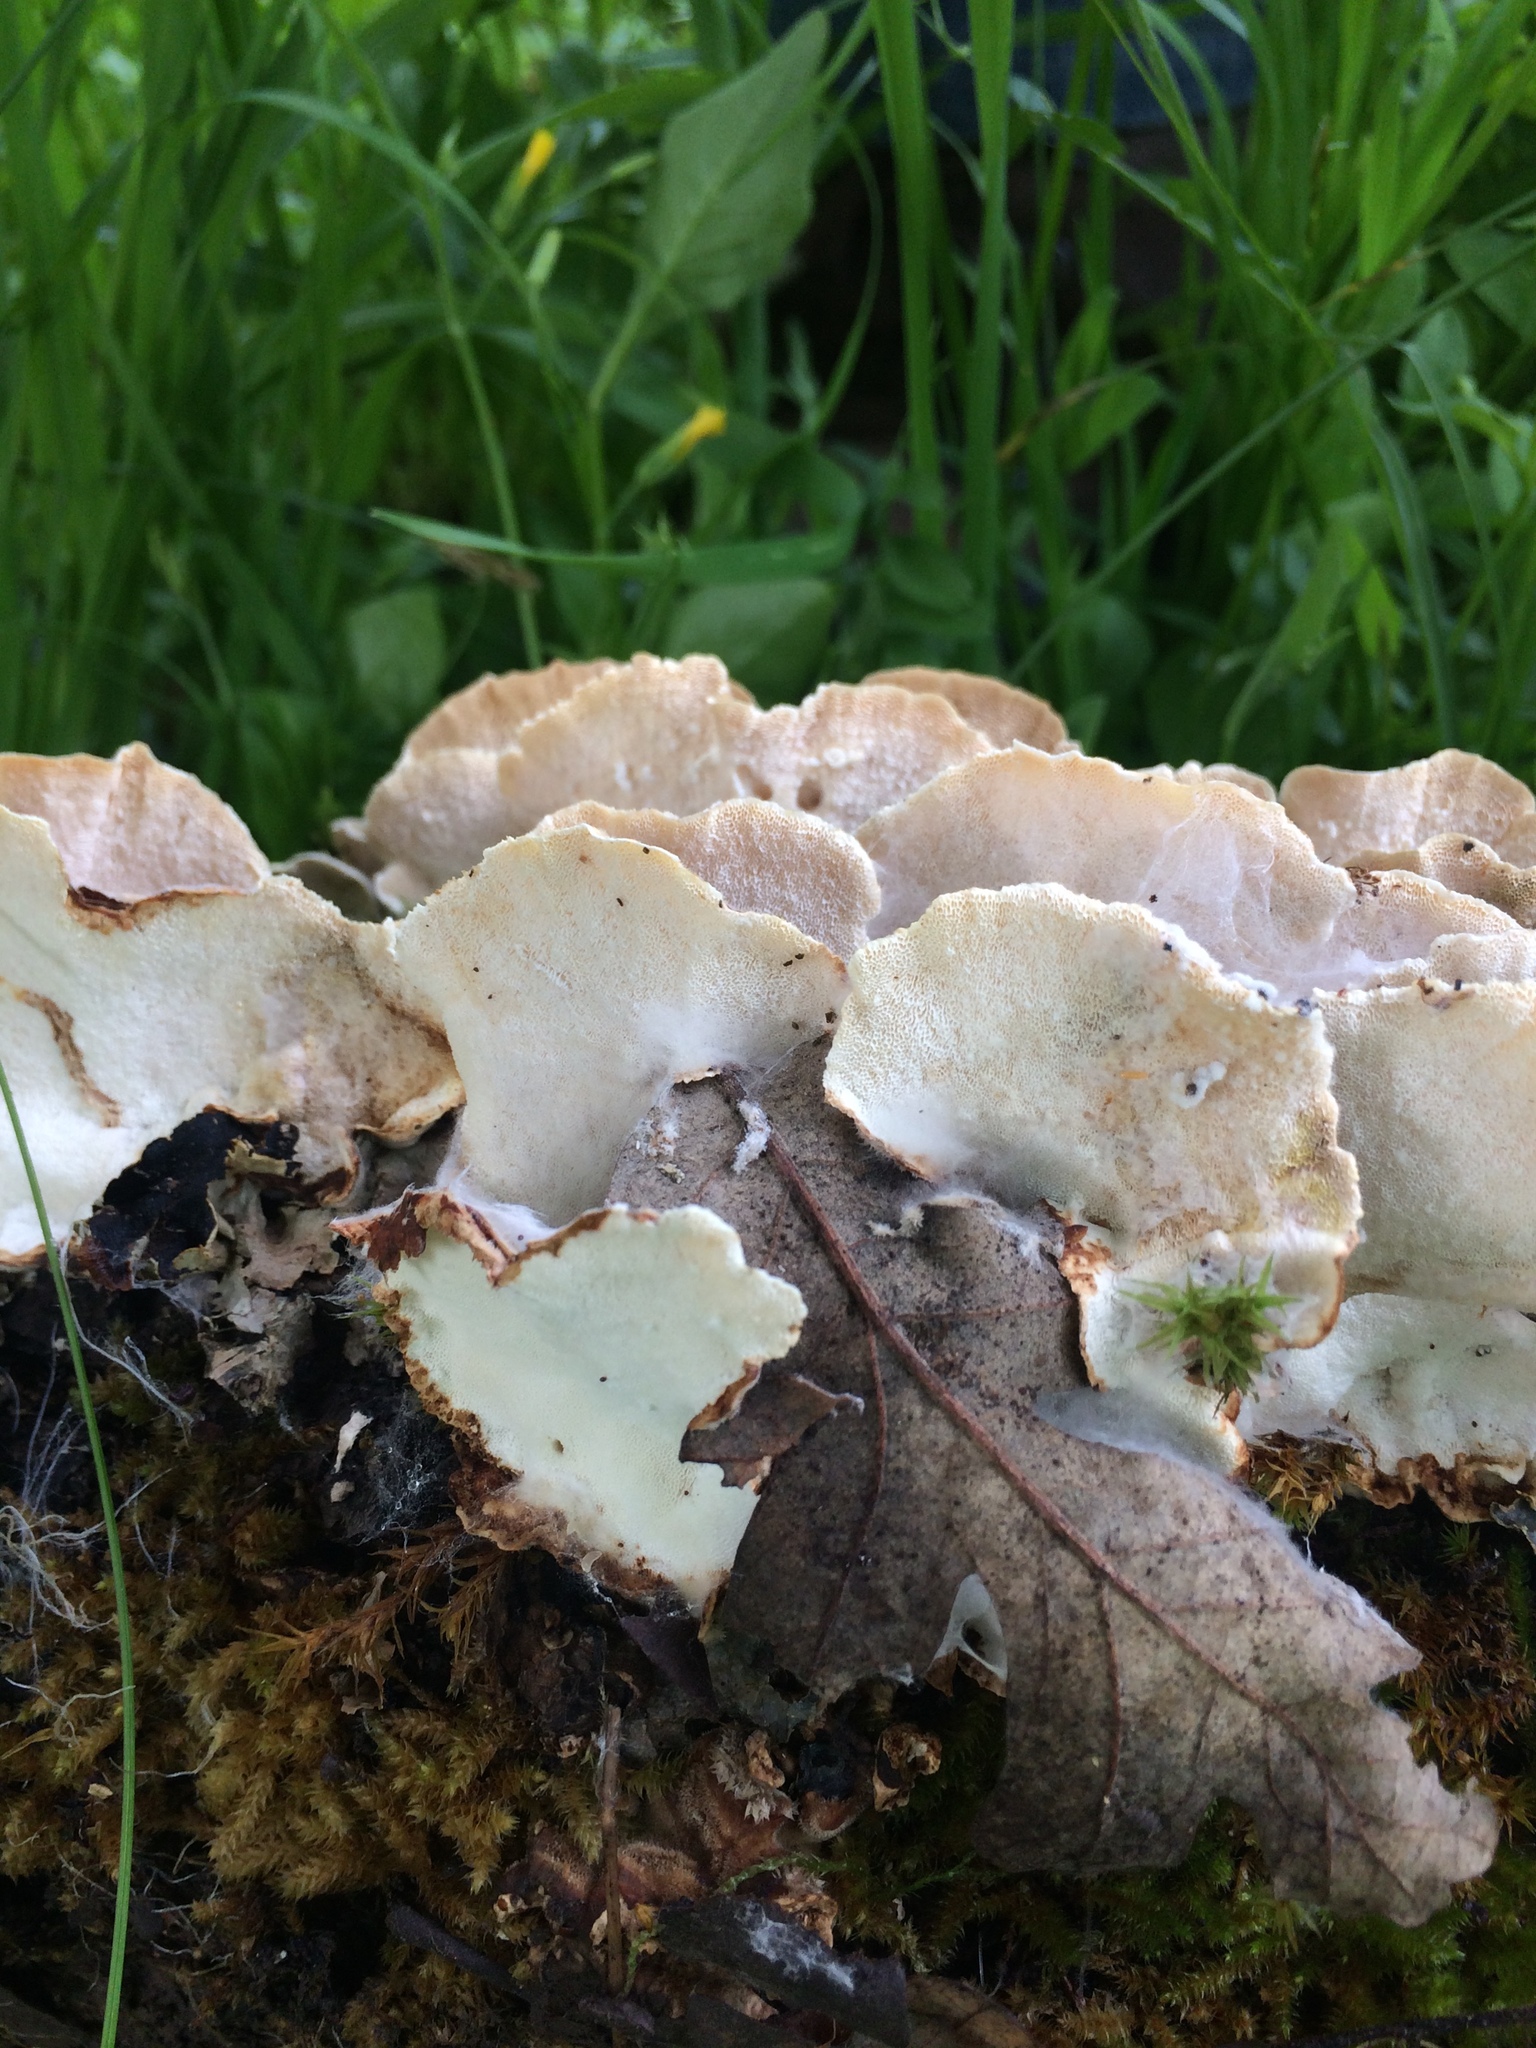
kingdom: Fungi
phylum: Basidiomycota
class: Agaricomycetes
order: Polyporales
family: Polyporaceae
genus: Trametes
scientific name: Trametes versicolor
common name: Turkeytail
